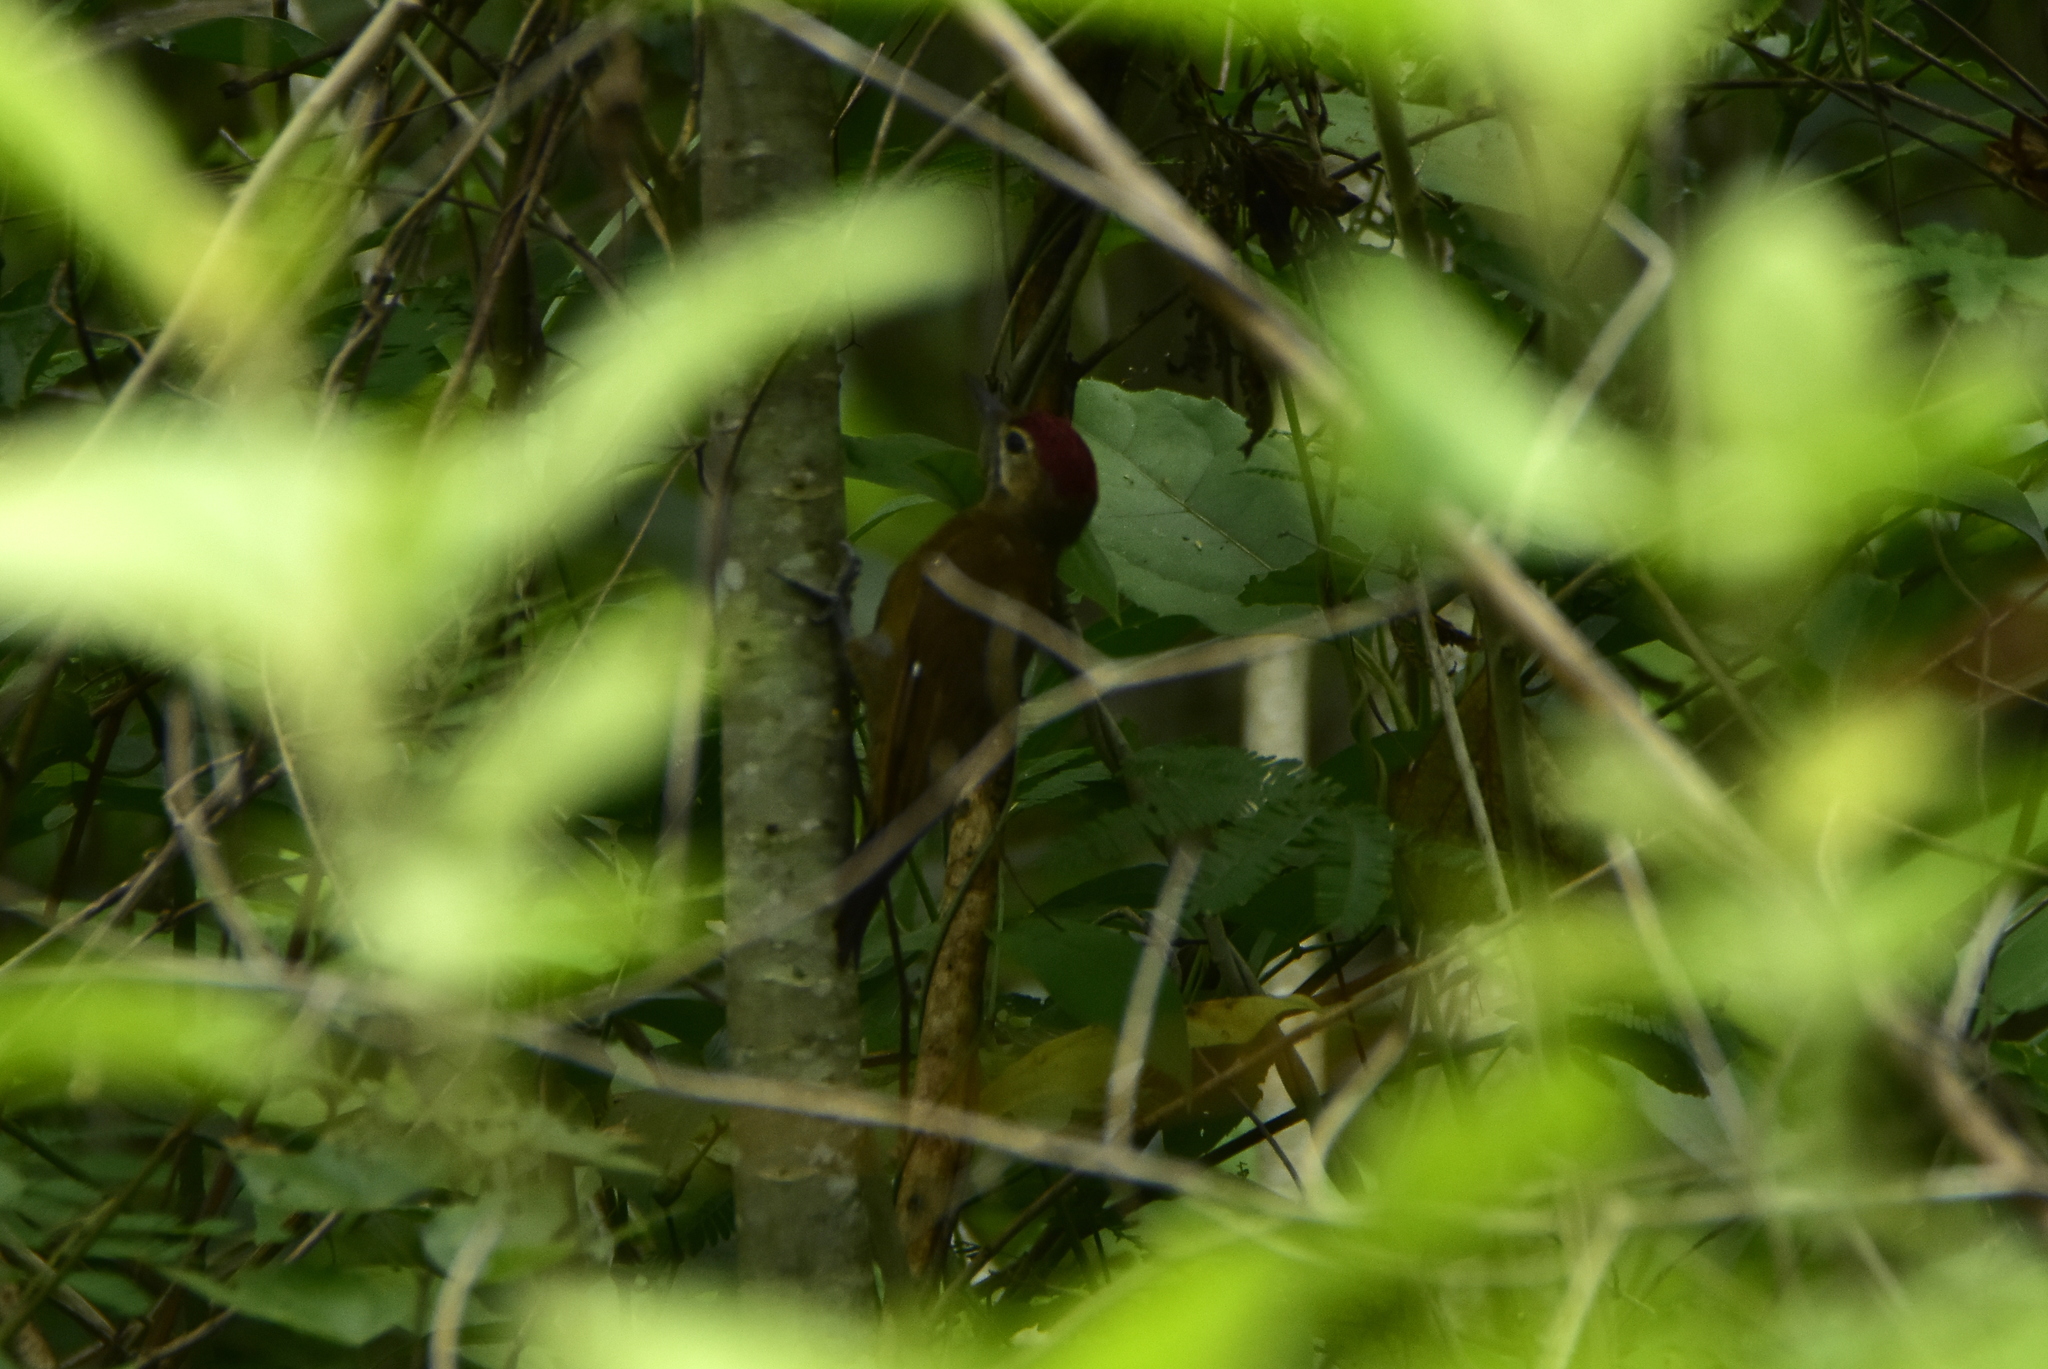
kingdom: Animalia
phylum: Chordata
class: Aves
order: Piciformes
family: Picidae
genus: Leuconotopicus
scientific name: Leuconotopicus fumigatus
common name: Smoky-brown woodpecker
